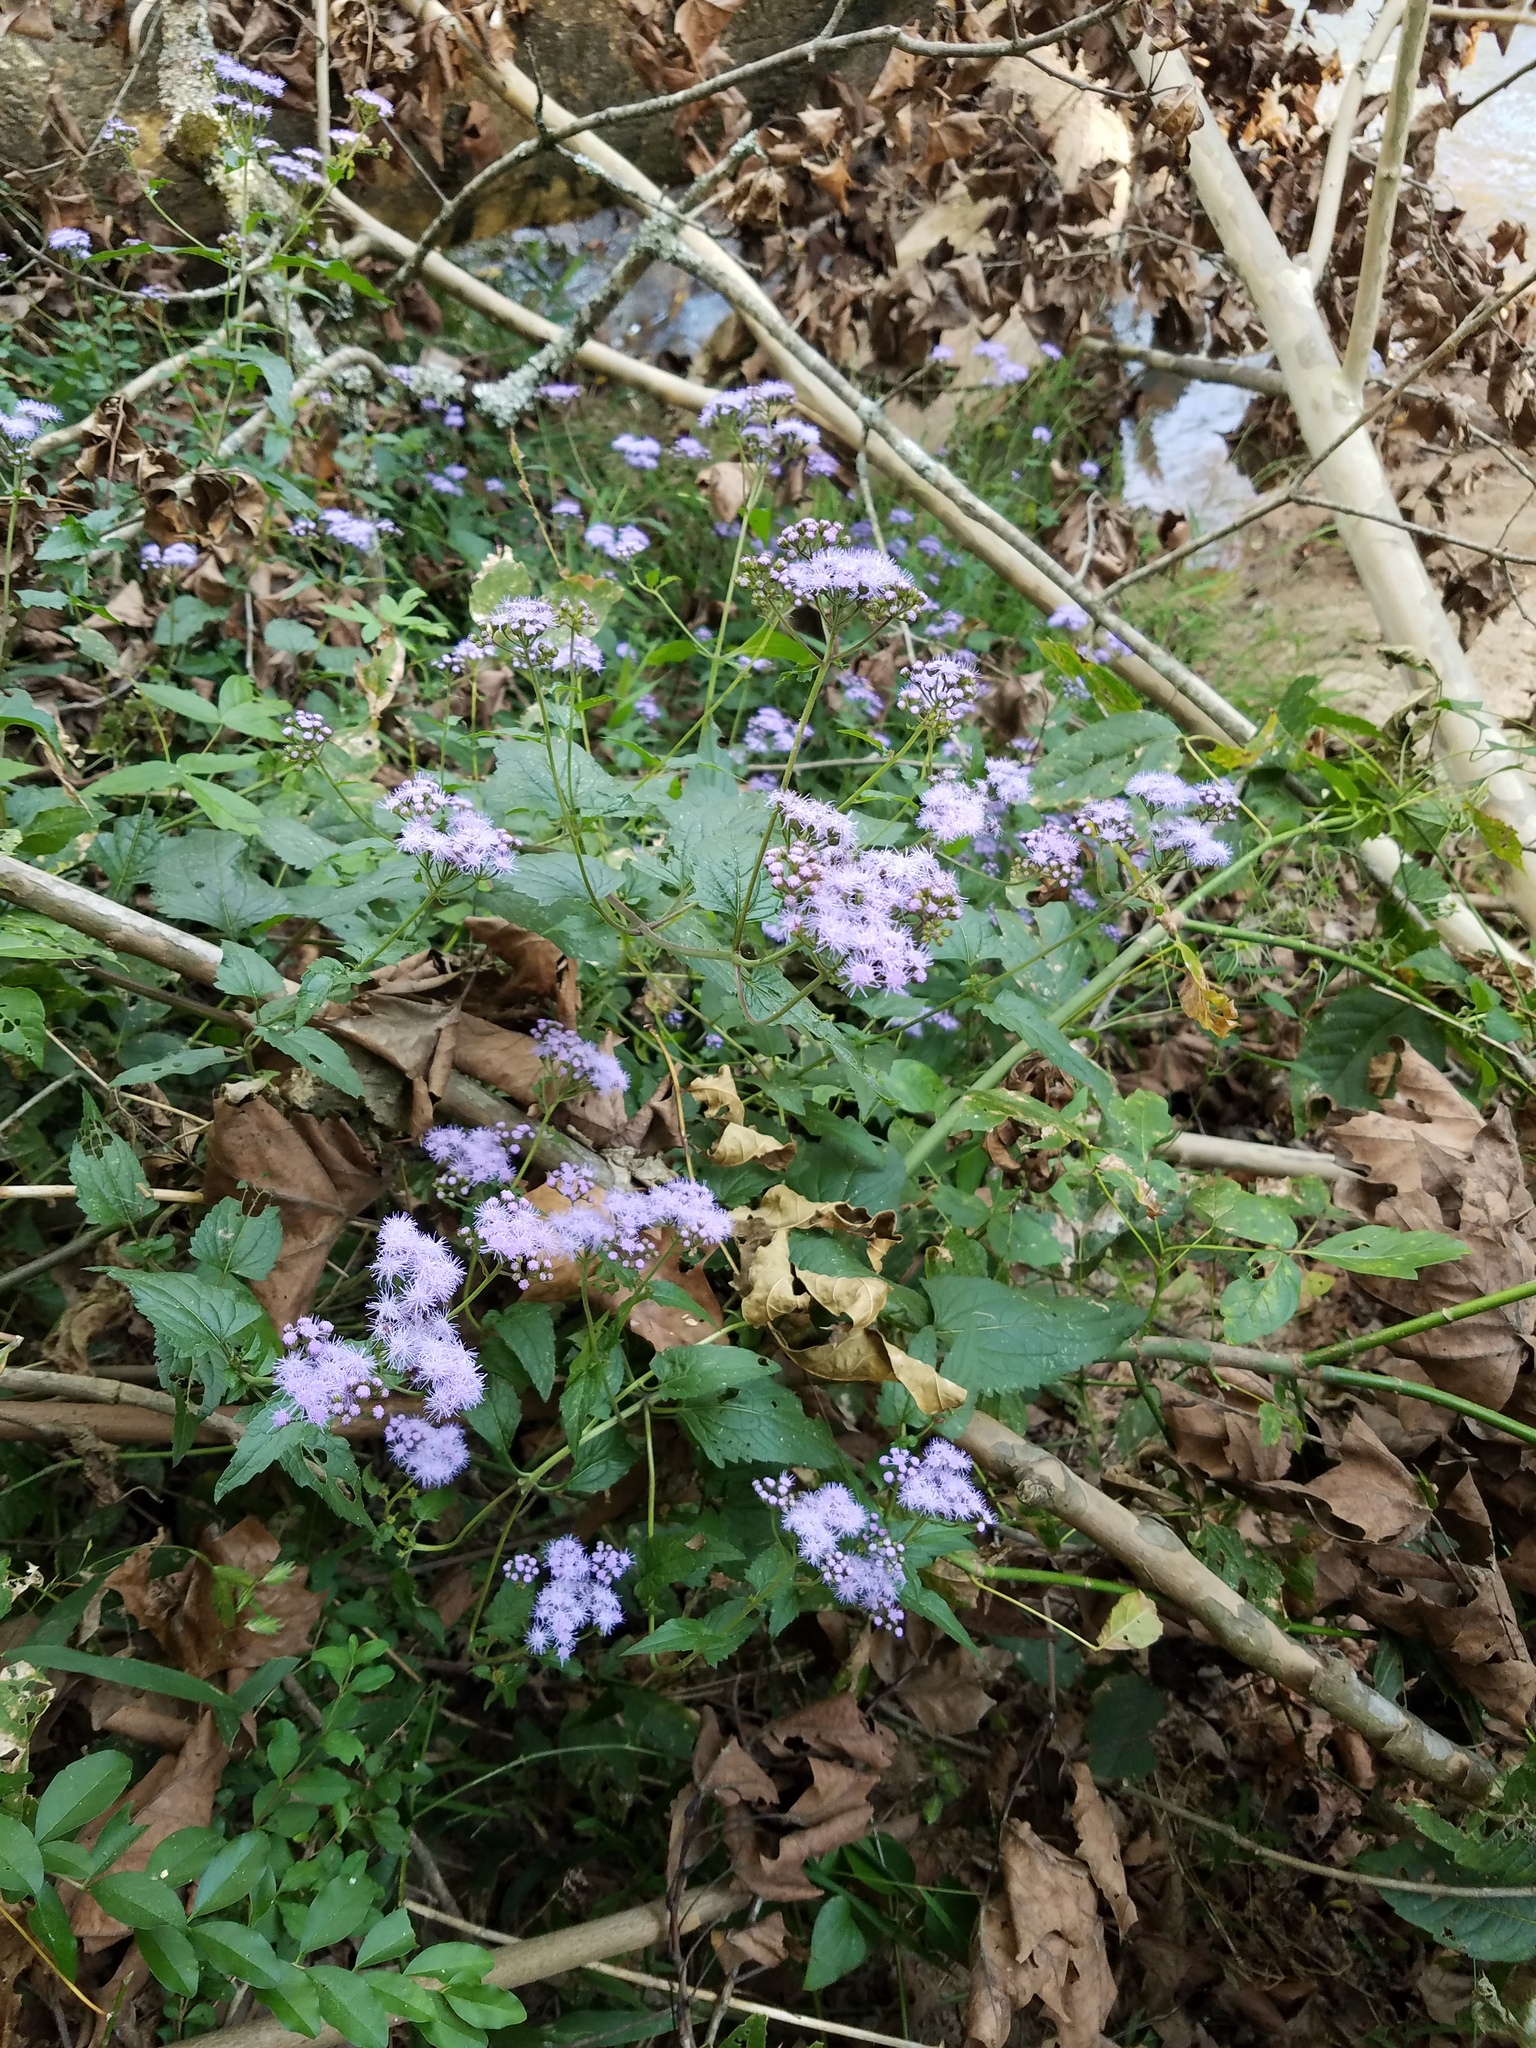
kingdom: Plantae
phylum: Tracheophyta
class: Magnoliopsida
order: Asterales
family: Asteraceae
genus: Conoclinium
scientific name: Conoclinium coelestinum
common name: Blue mistflower
